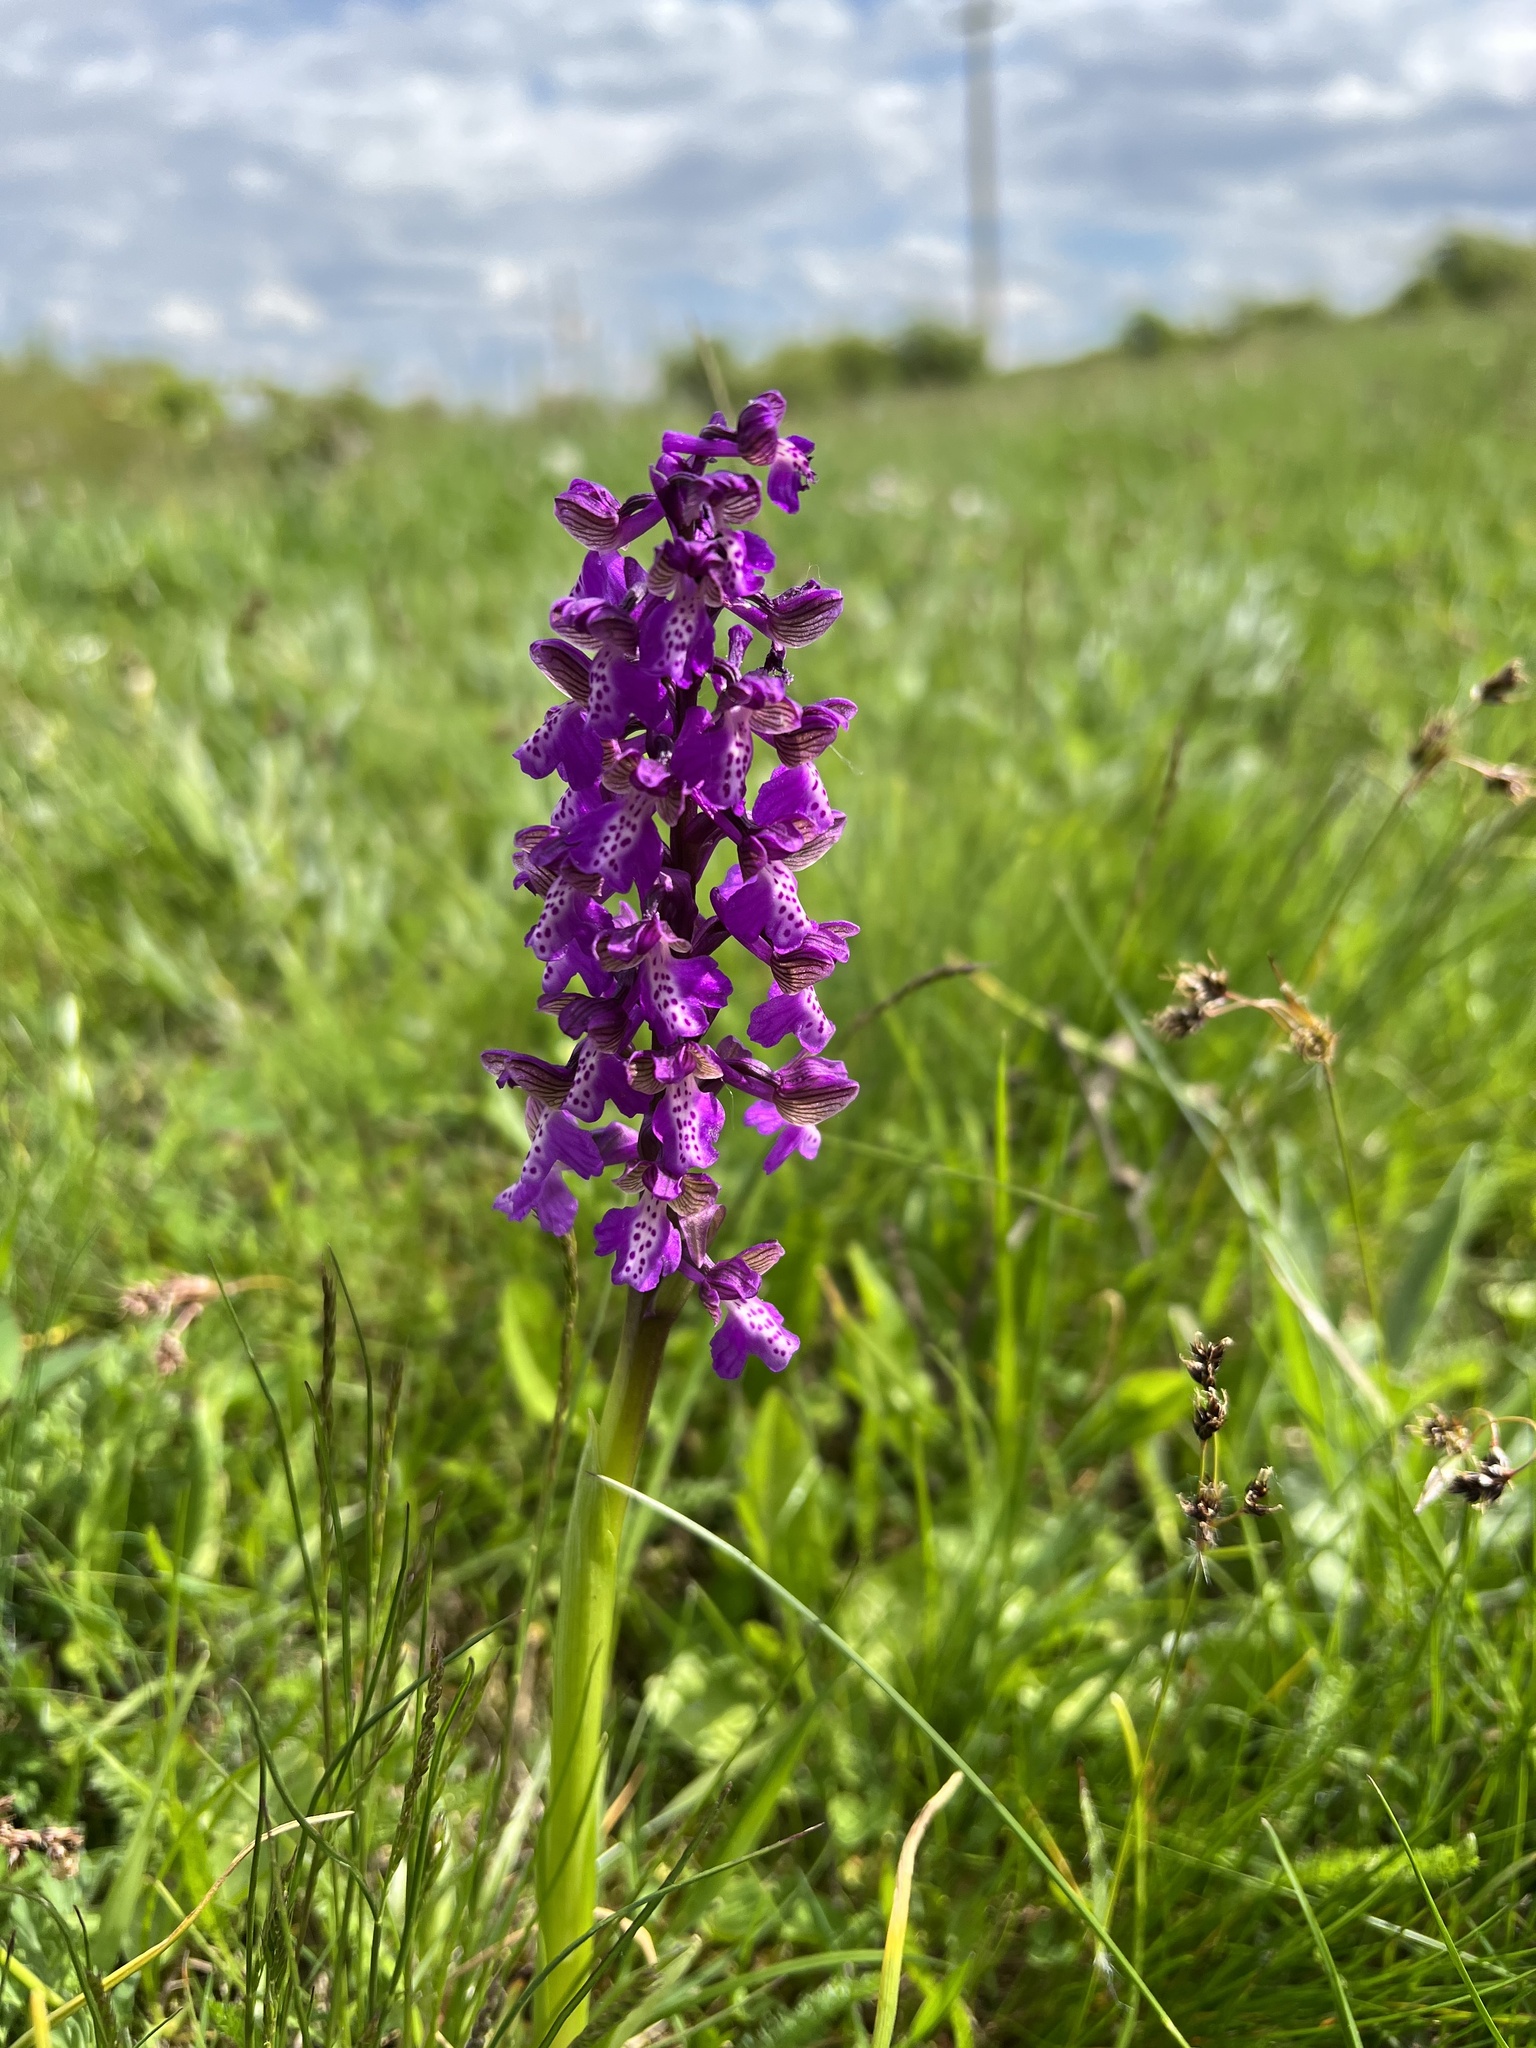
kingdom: Plantae
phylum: Tracheophyta
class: Liliopsida
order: Asparagales
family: Orchidaceae
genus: Anacamptis
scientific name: Anacamptis morio
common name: Green-winged orchid
